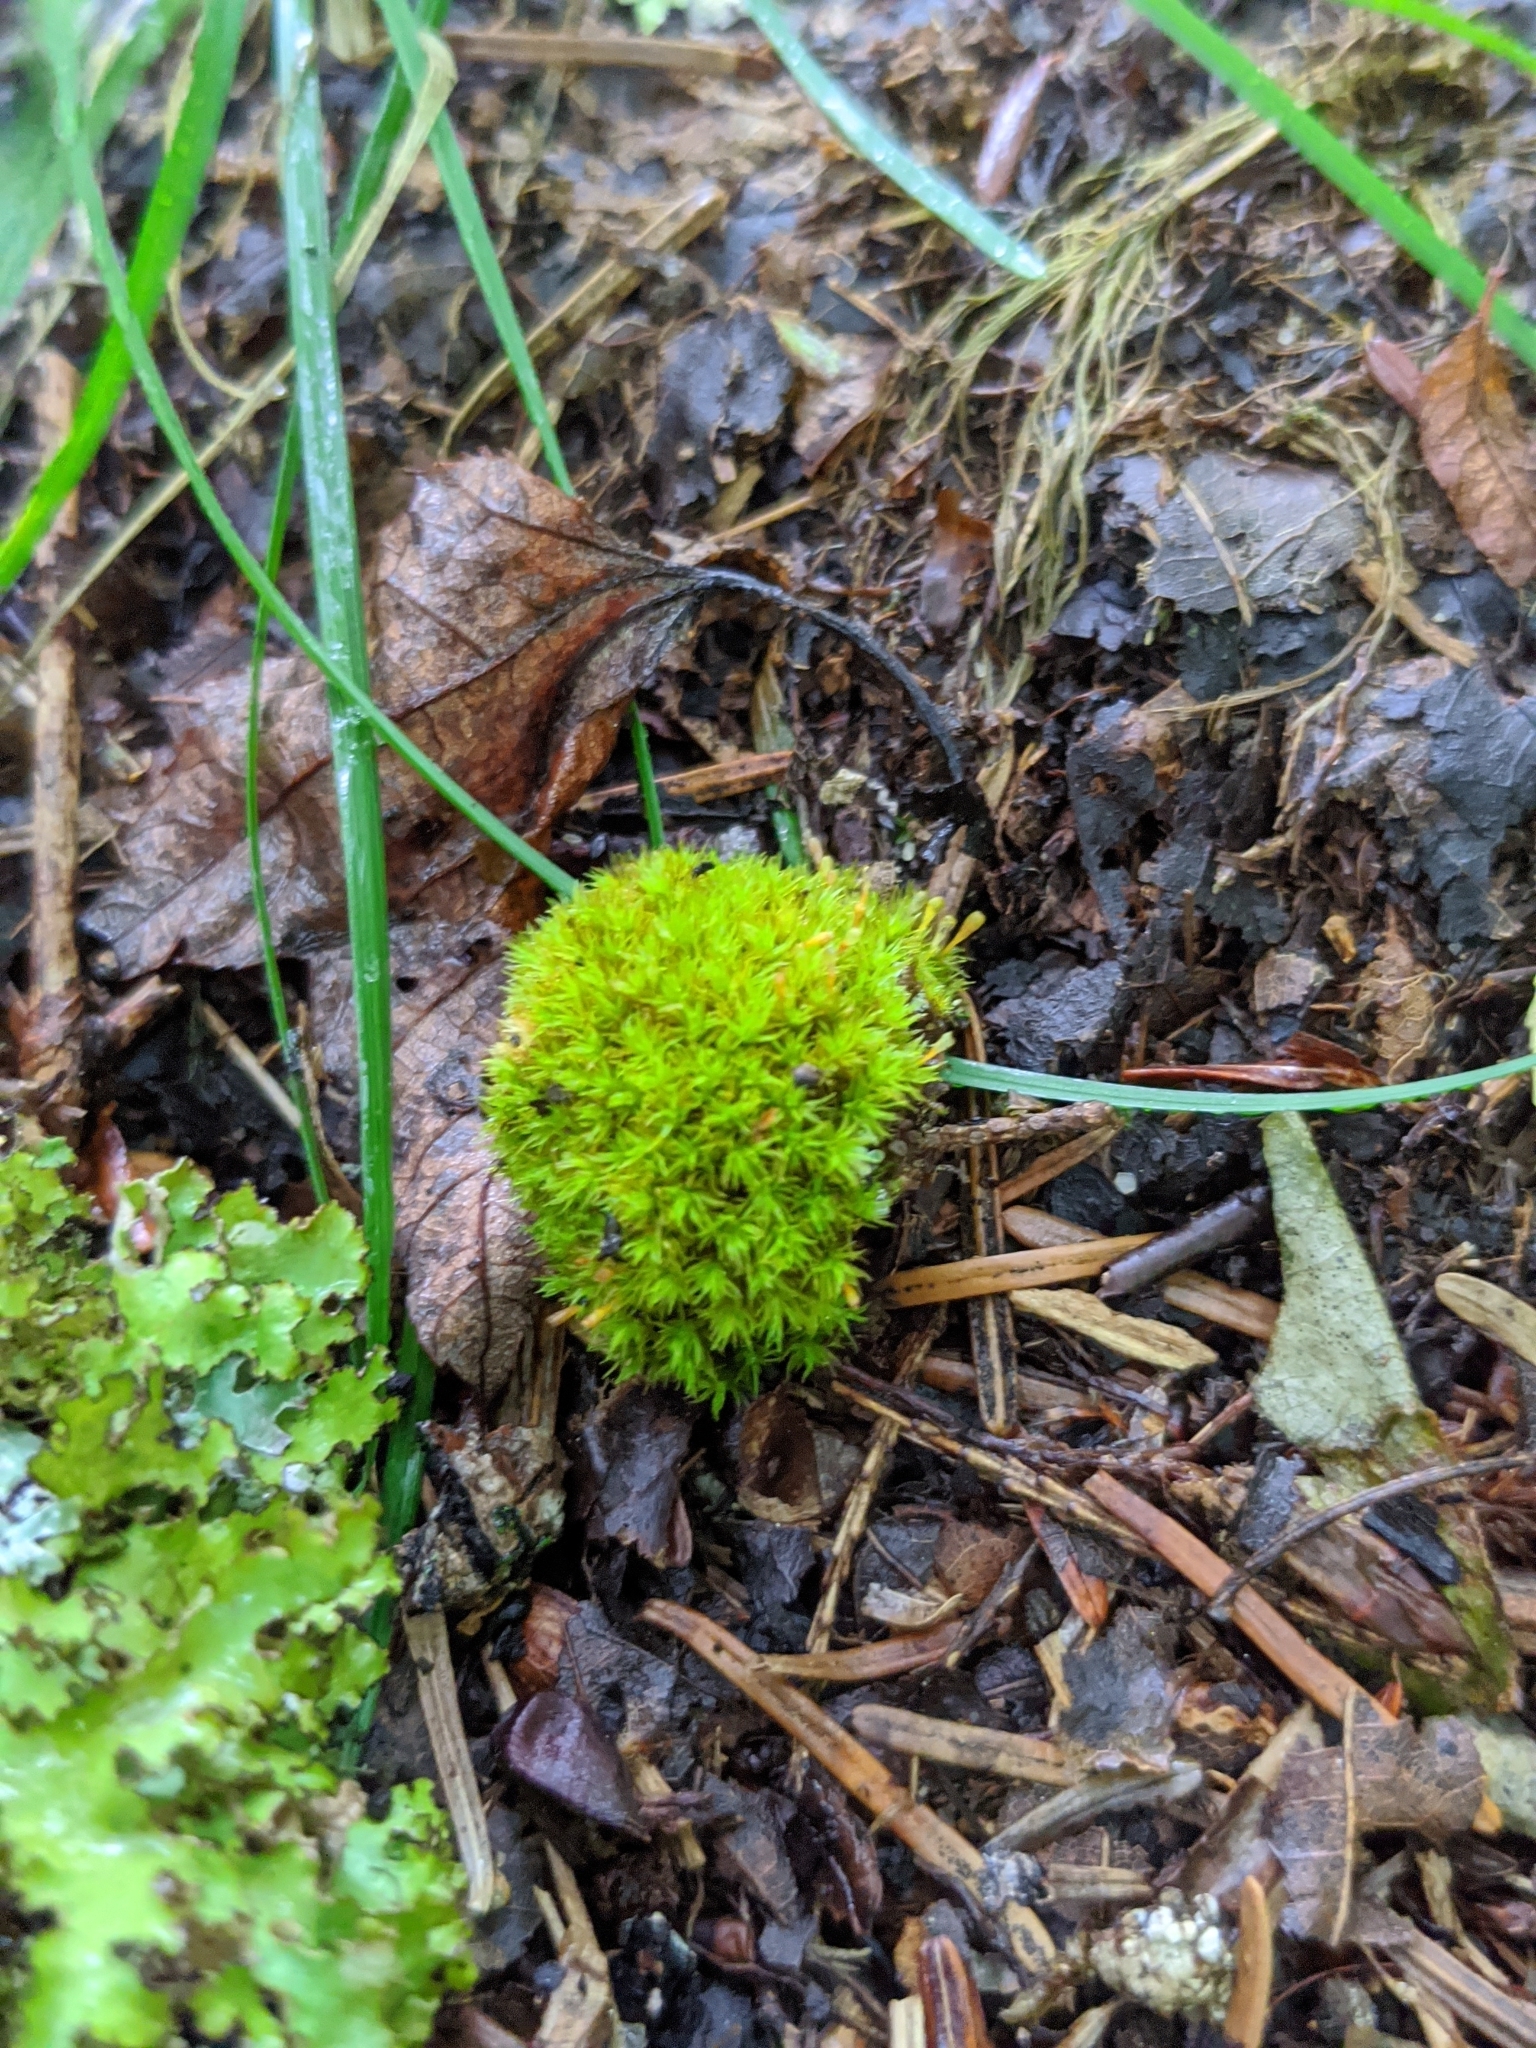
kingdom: Plantae
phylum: Bryophyta
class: Bryopsida
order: Orthotrichales
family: Orthotrichaceae
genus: Ulota
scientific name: Ulota crispa
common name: Crisped pincushion moss
